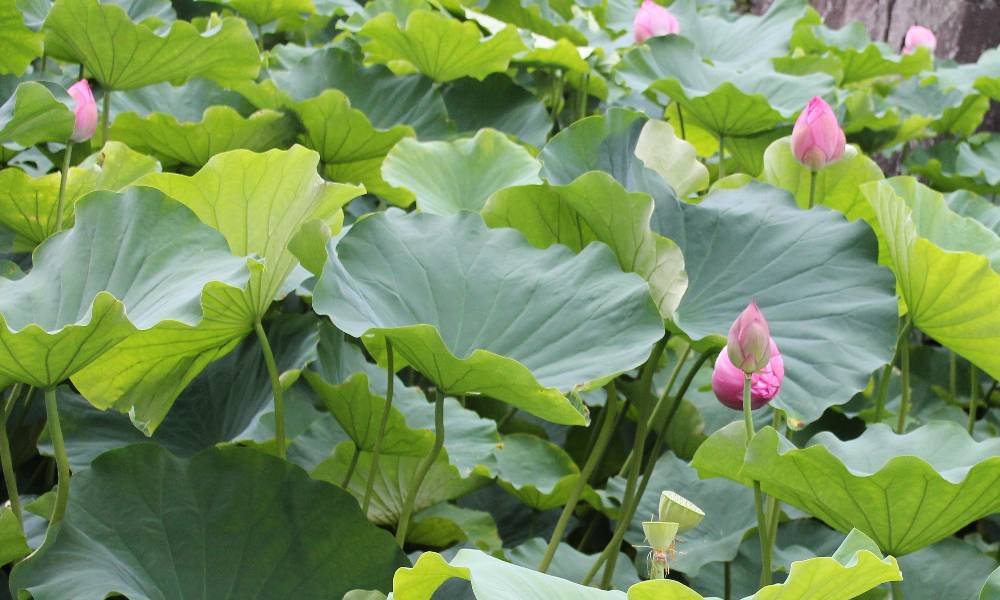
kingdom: Plantae
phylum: Tracheophyta
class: Magnoliopsida
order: Proteales
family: Nelumbonaceae
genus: Nelumbo
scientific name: Nelumbo nucifera
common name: Sacred lotus
